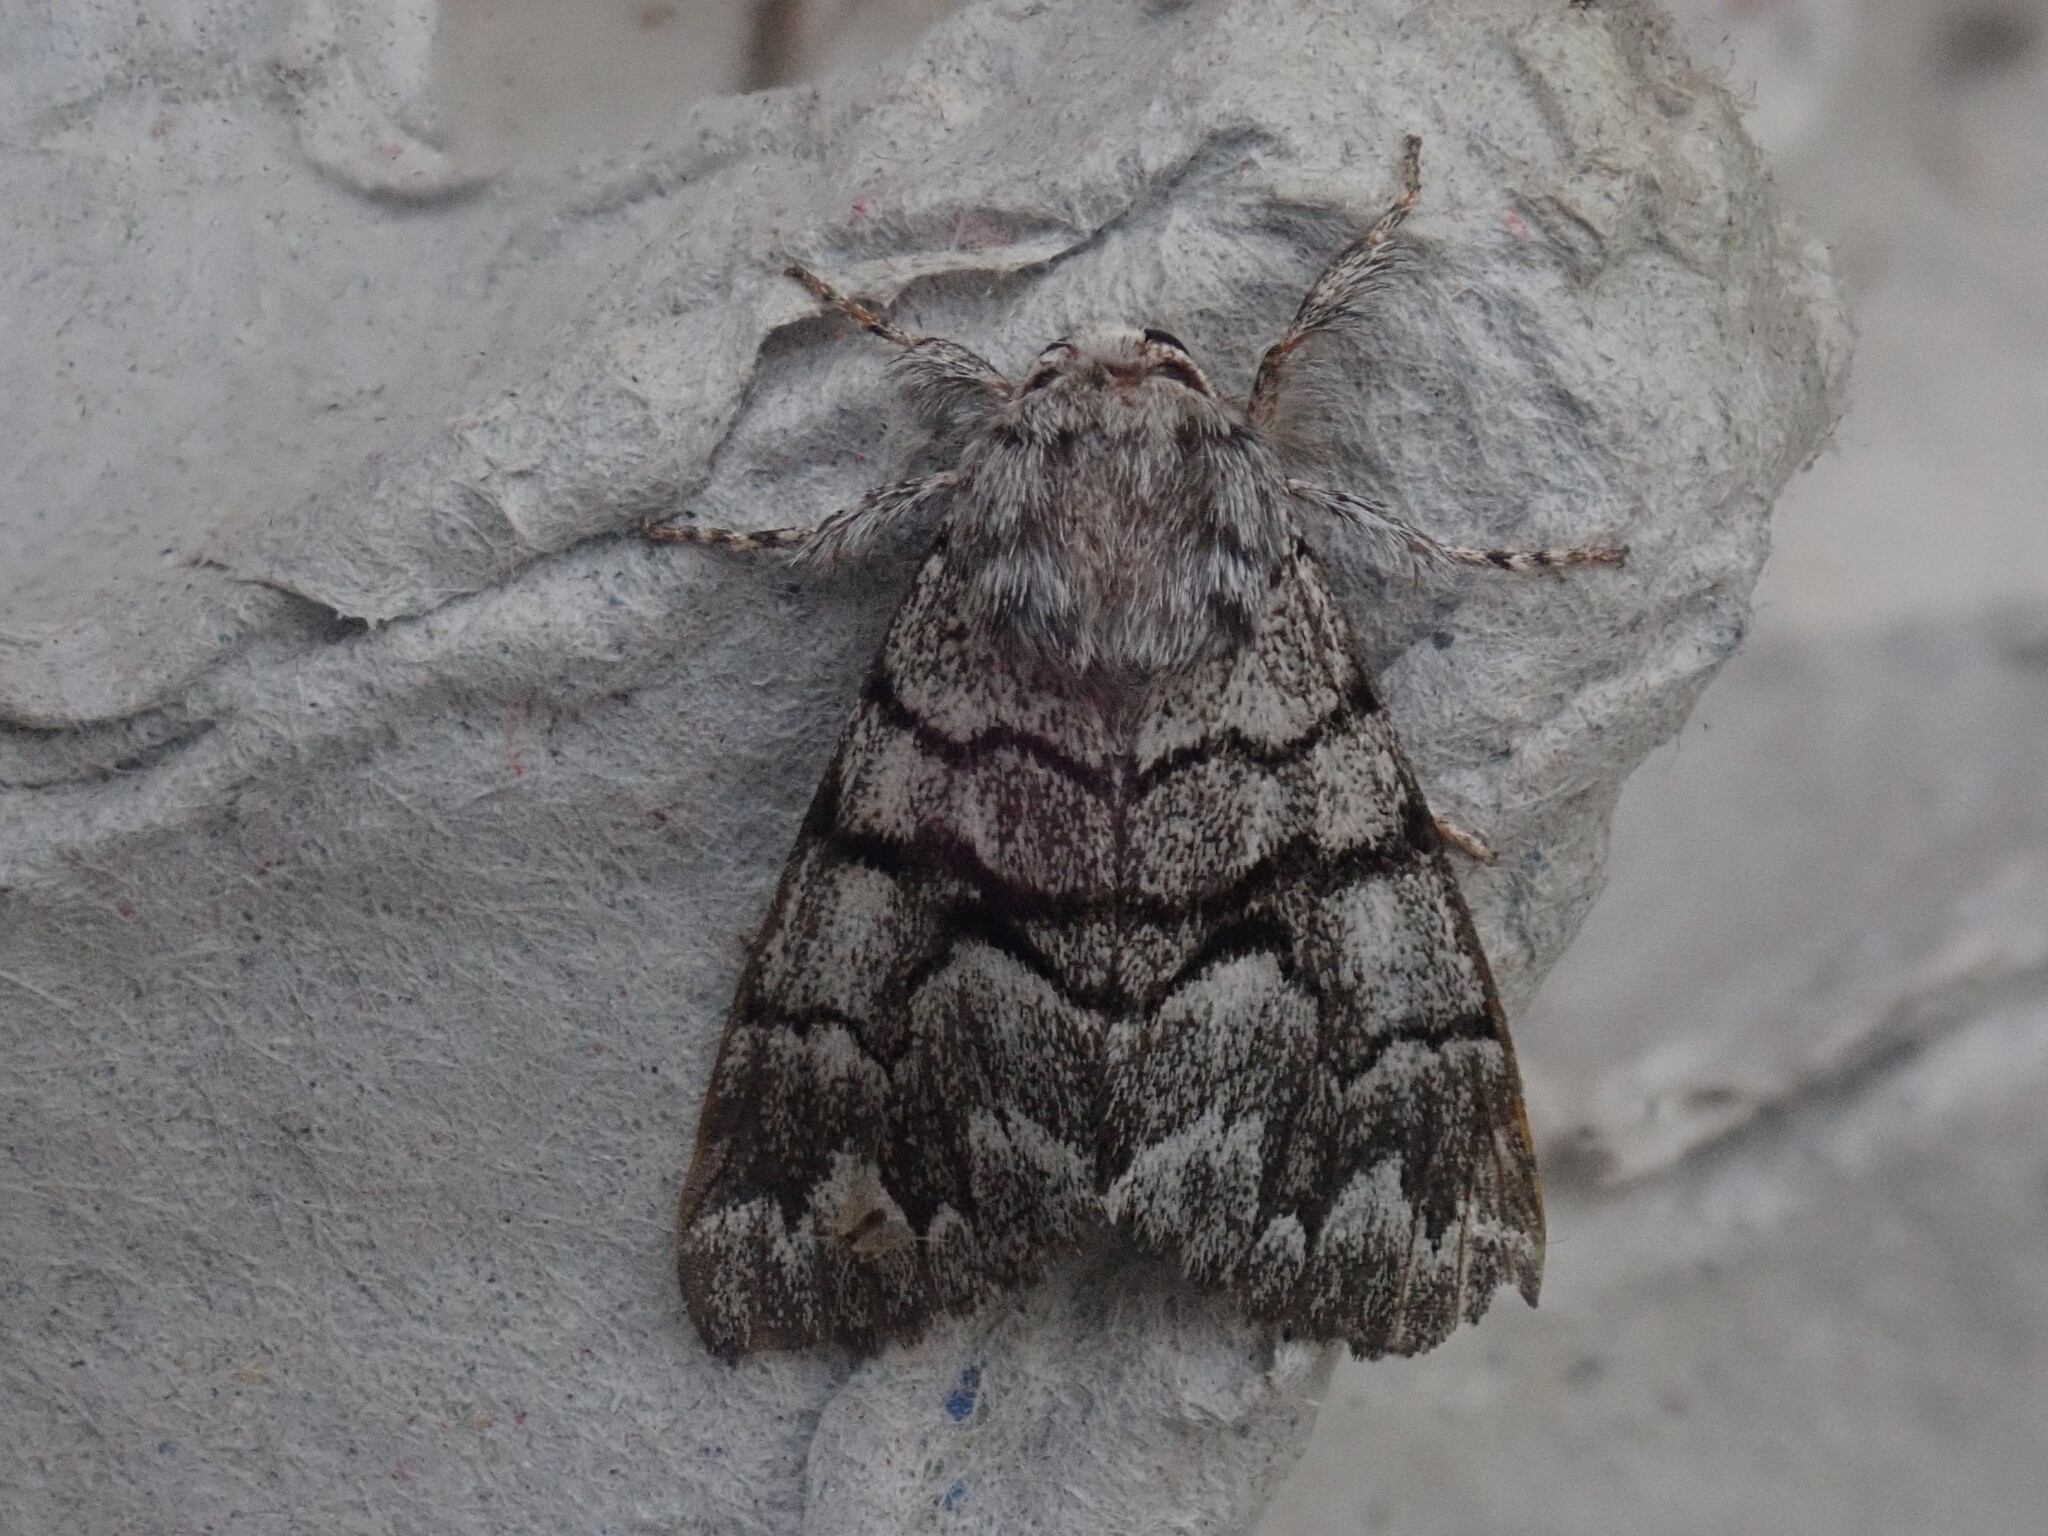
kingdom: Animalia
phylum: Arthropoda
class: Insecta
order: Lepidoptera
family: Noctuidae
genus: Panthea
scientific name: Panthea furcilla
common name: Eastern panthea moth
